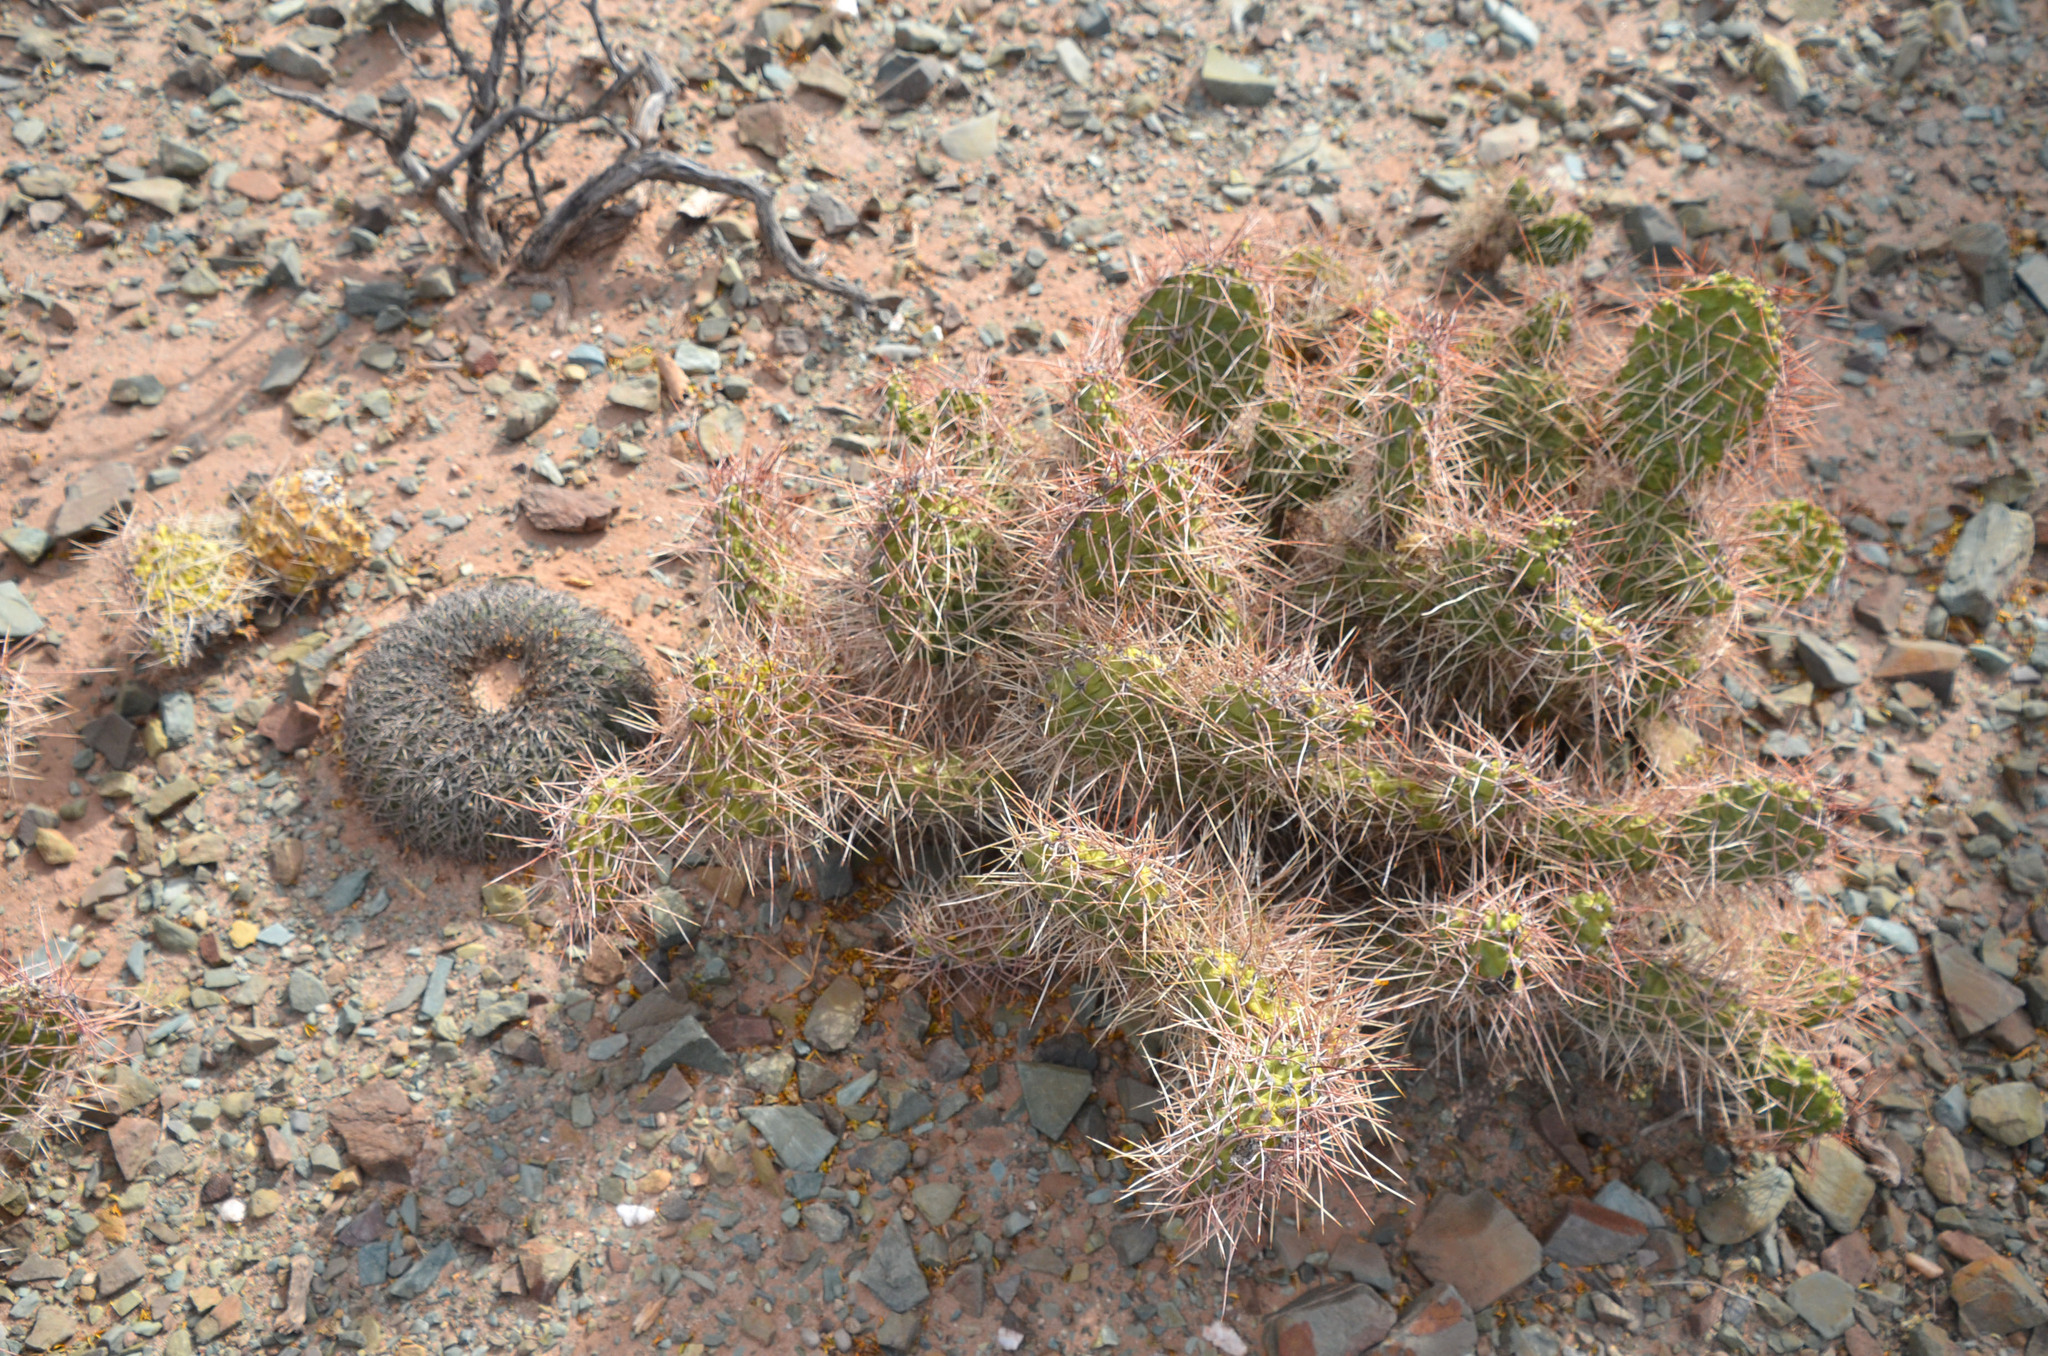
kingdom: Plantae
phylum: Tracheophyta
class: Magnoliopsida
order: Caryophyllales
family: Cactaceae
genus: Gymnocalycium
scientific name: Gymnocalycium spegazzinii
